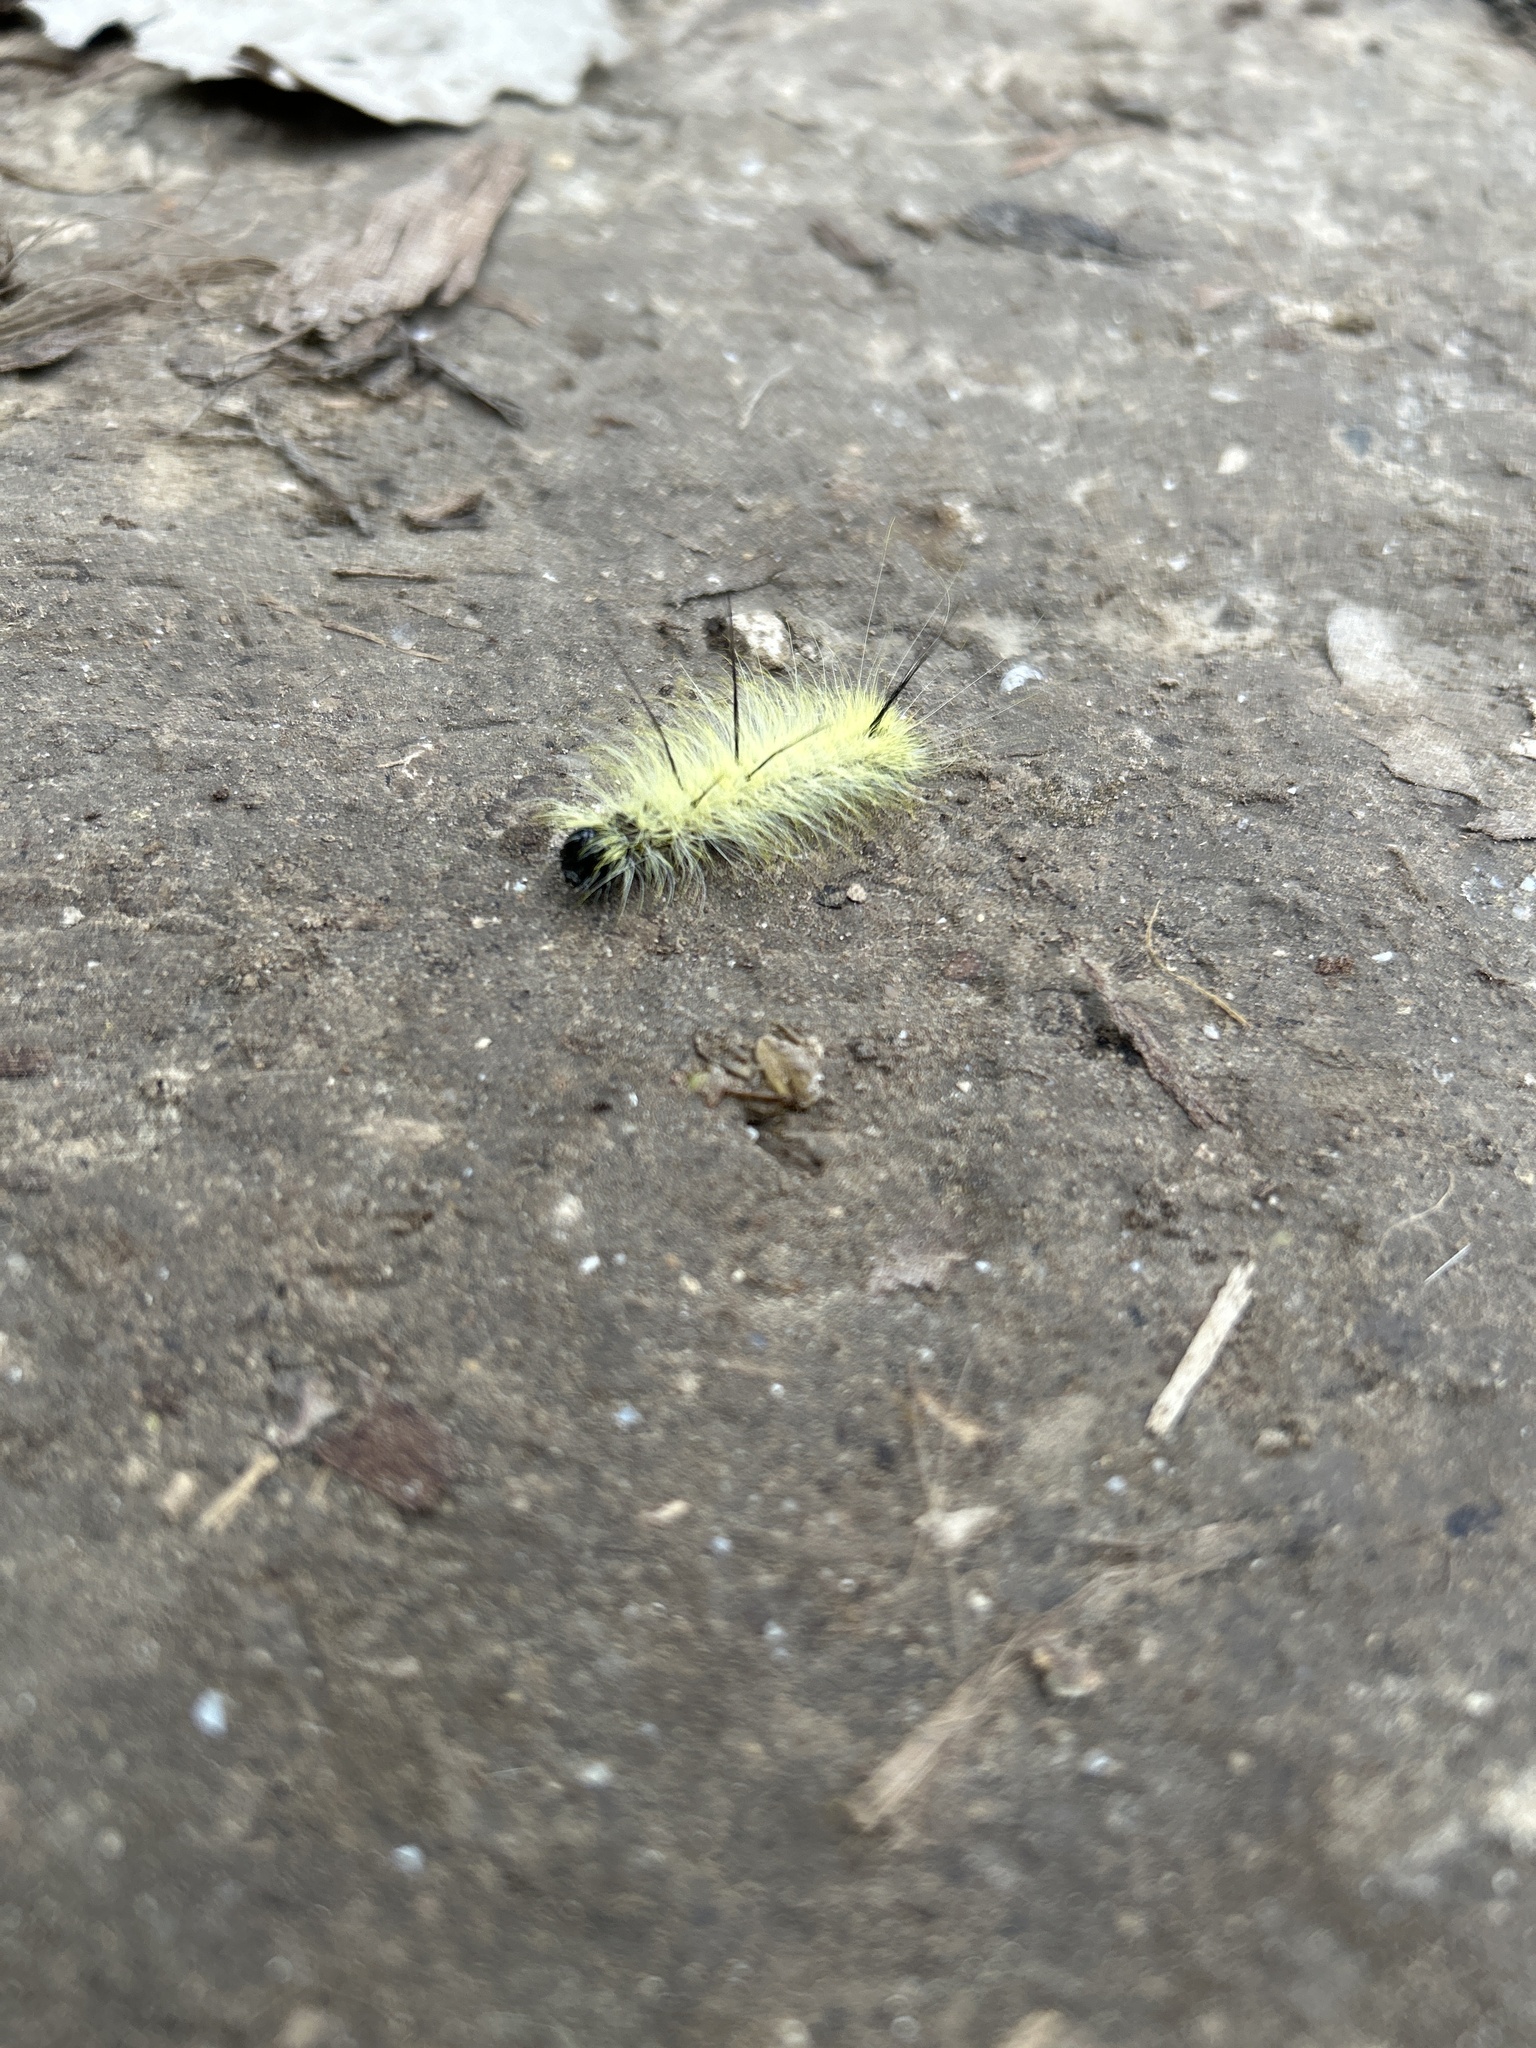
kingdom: Animalia
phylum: Arthropoda
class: Insecta
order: Lepidoptera
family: Noctuidae
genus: Acronicta
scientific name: Acronicta americana
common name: American dagger
